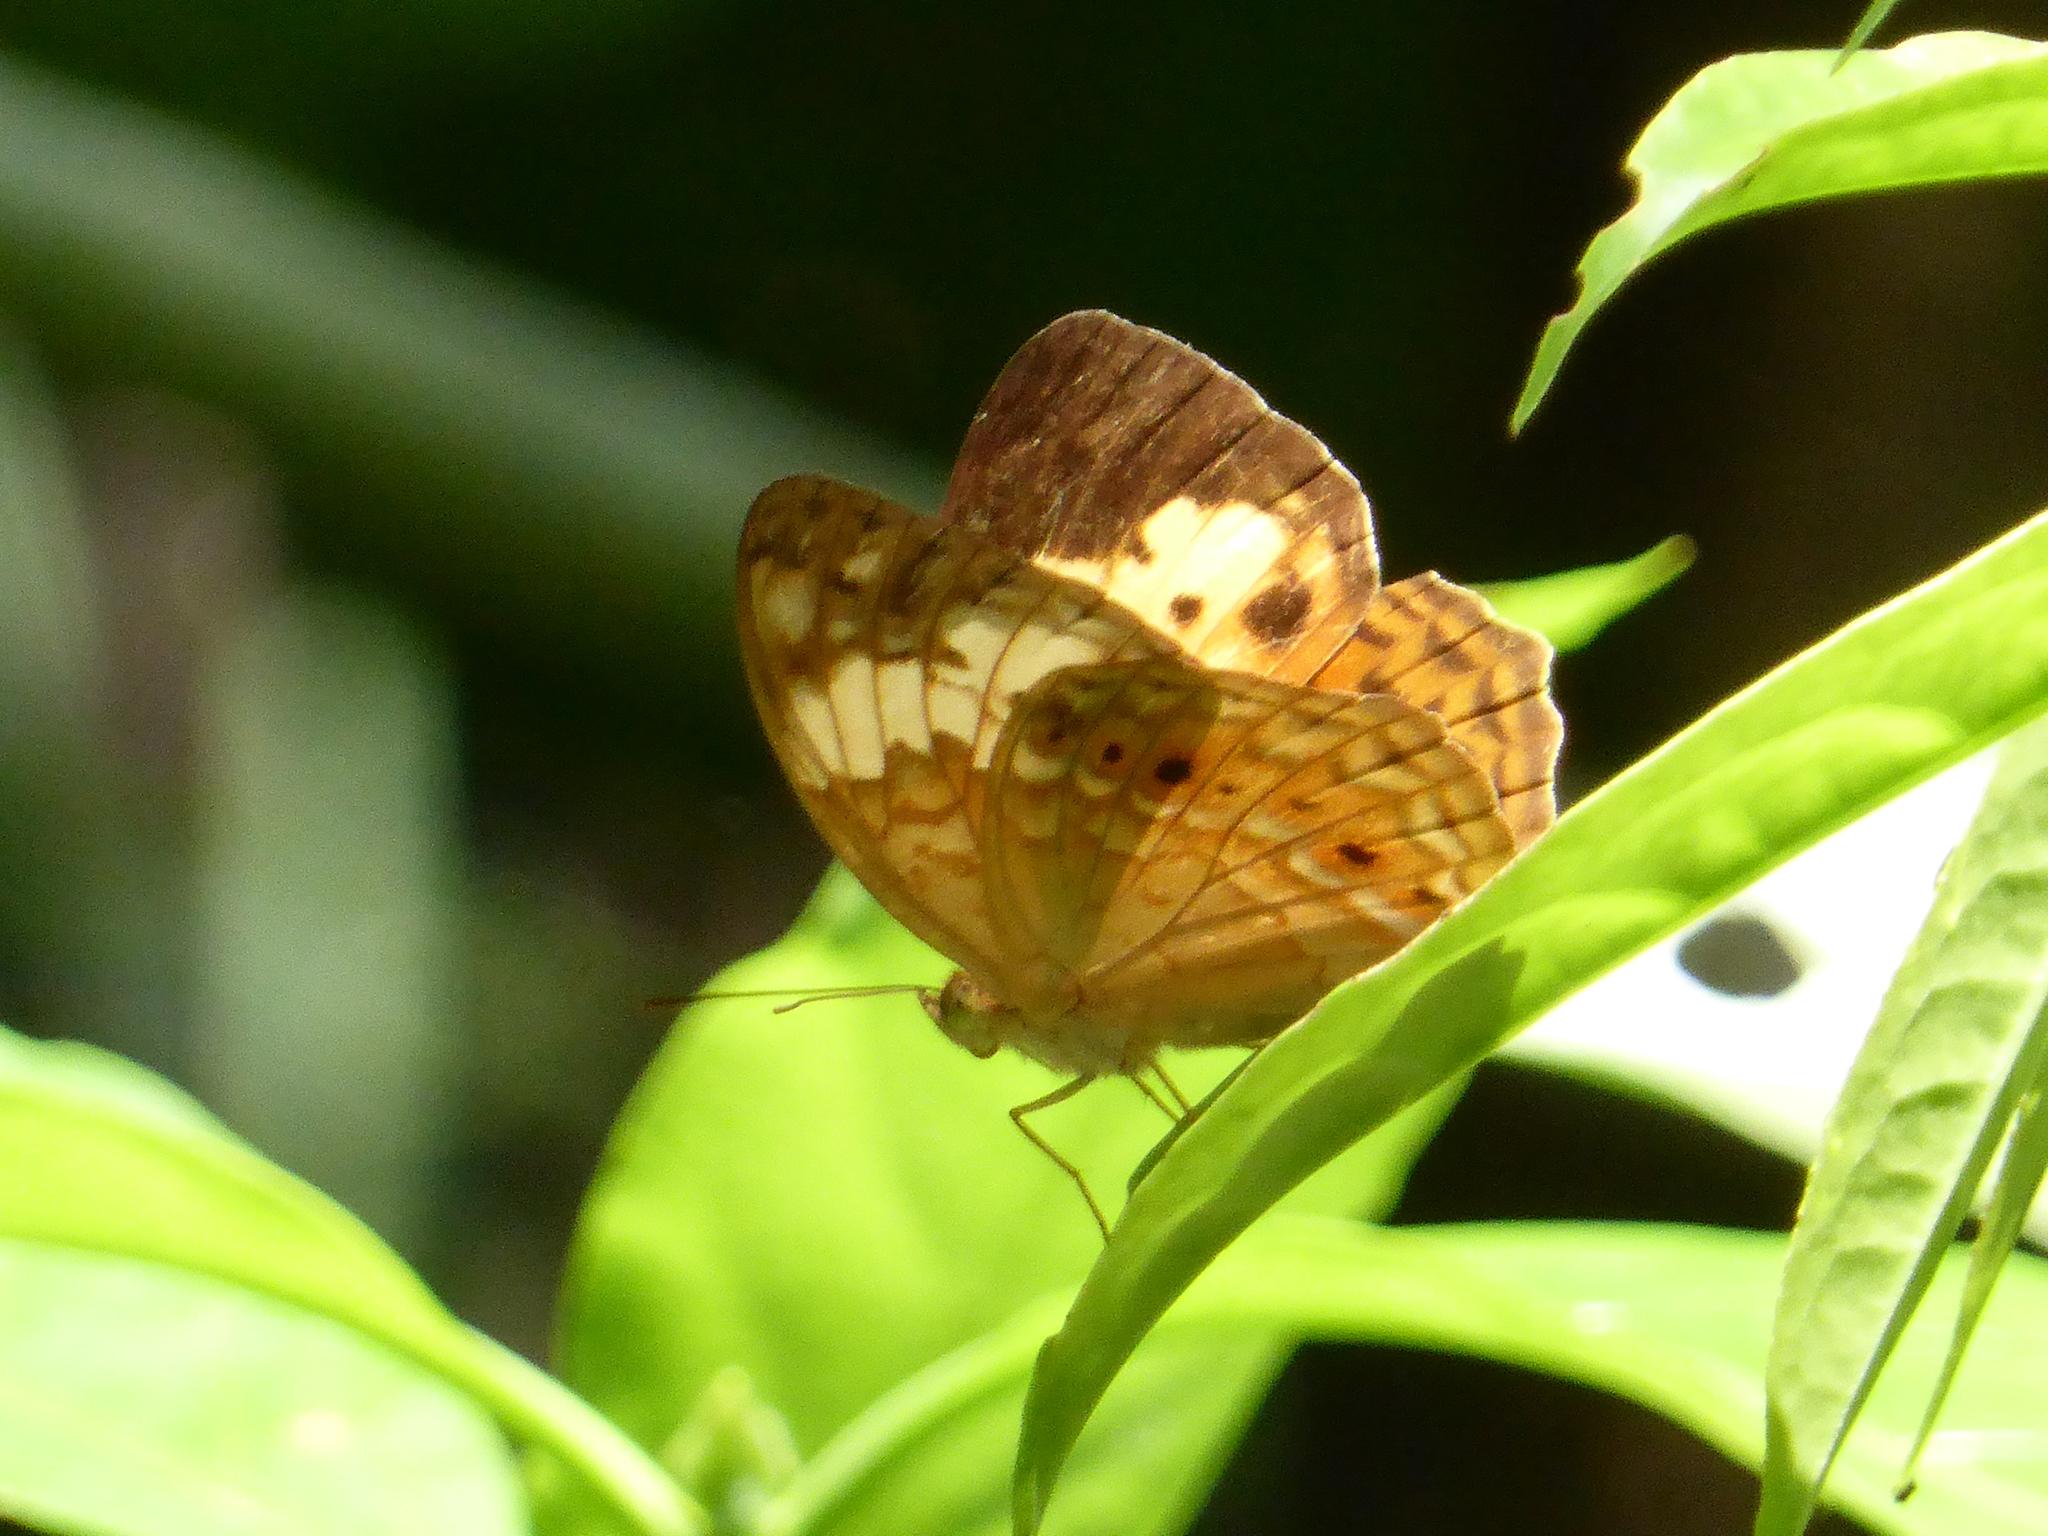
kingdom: Animalia
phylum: Arthropoda
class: Insecta
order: Lepidoptera
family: Nymphalidae
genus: Cupha
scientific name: Cupha erymanthis
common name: Rustic
